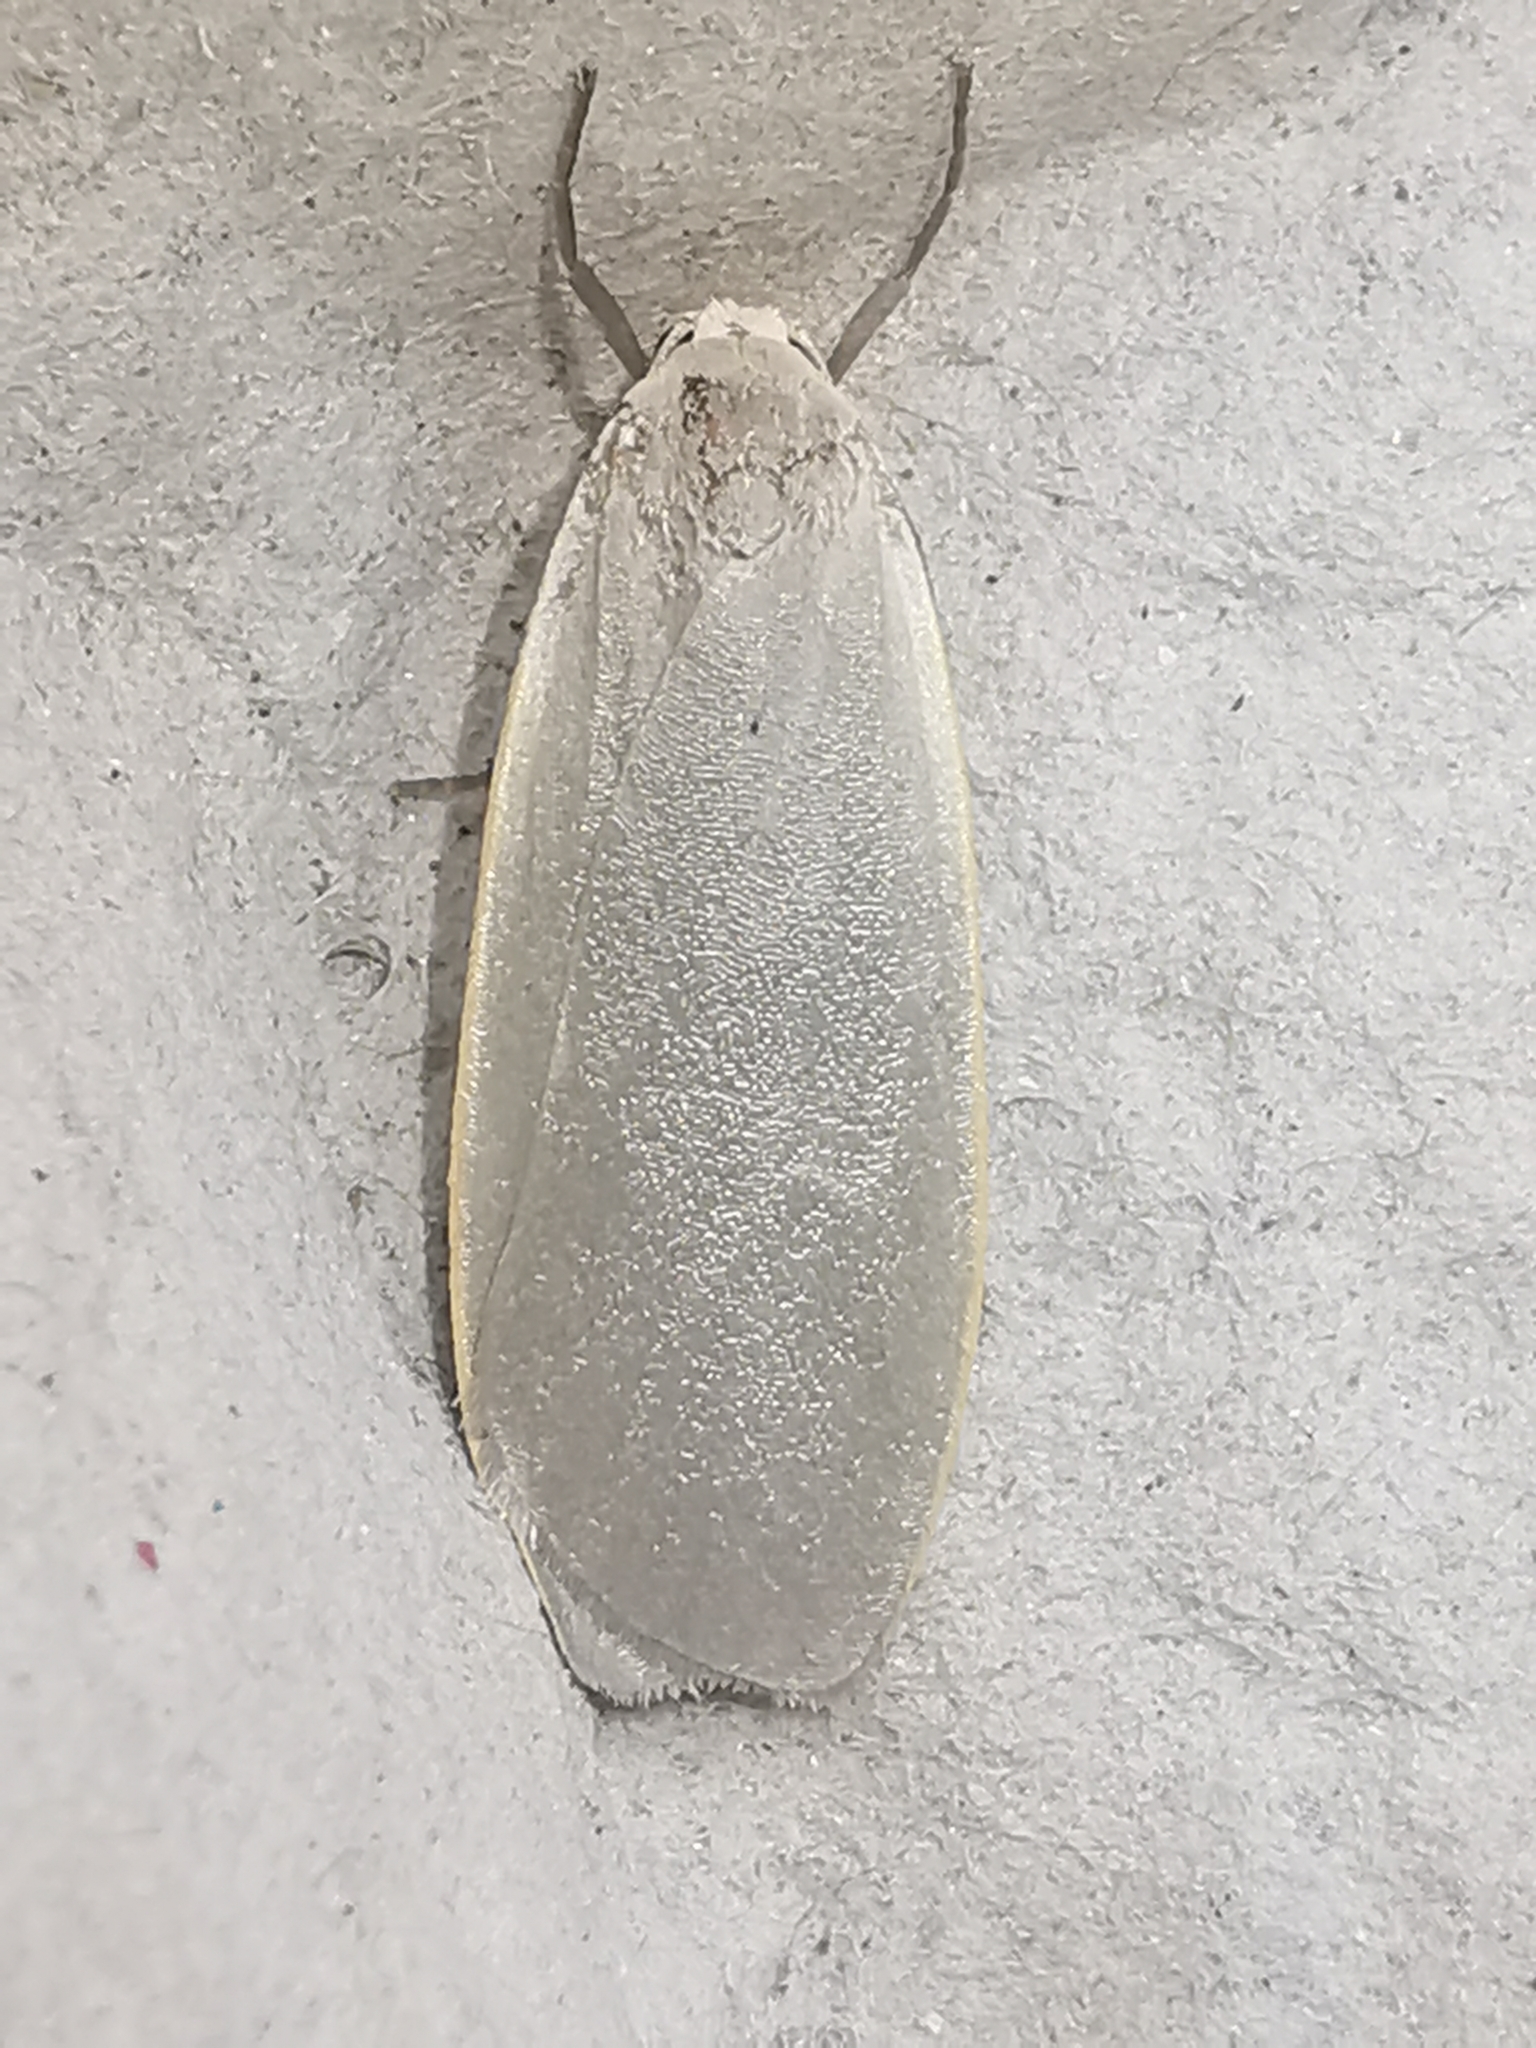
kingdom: Animalia
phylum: Arthropoda
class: Insecta
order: Lepidoptera
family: Erebidae
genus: Collita
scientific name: Collita griseola
